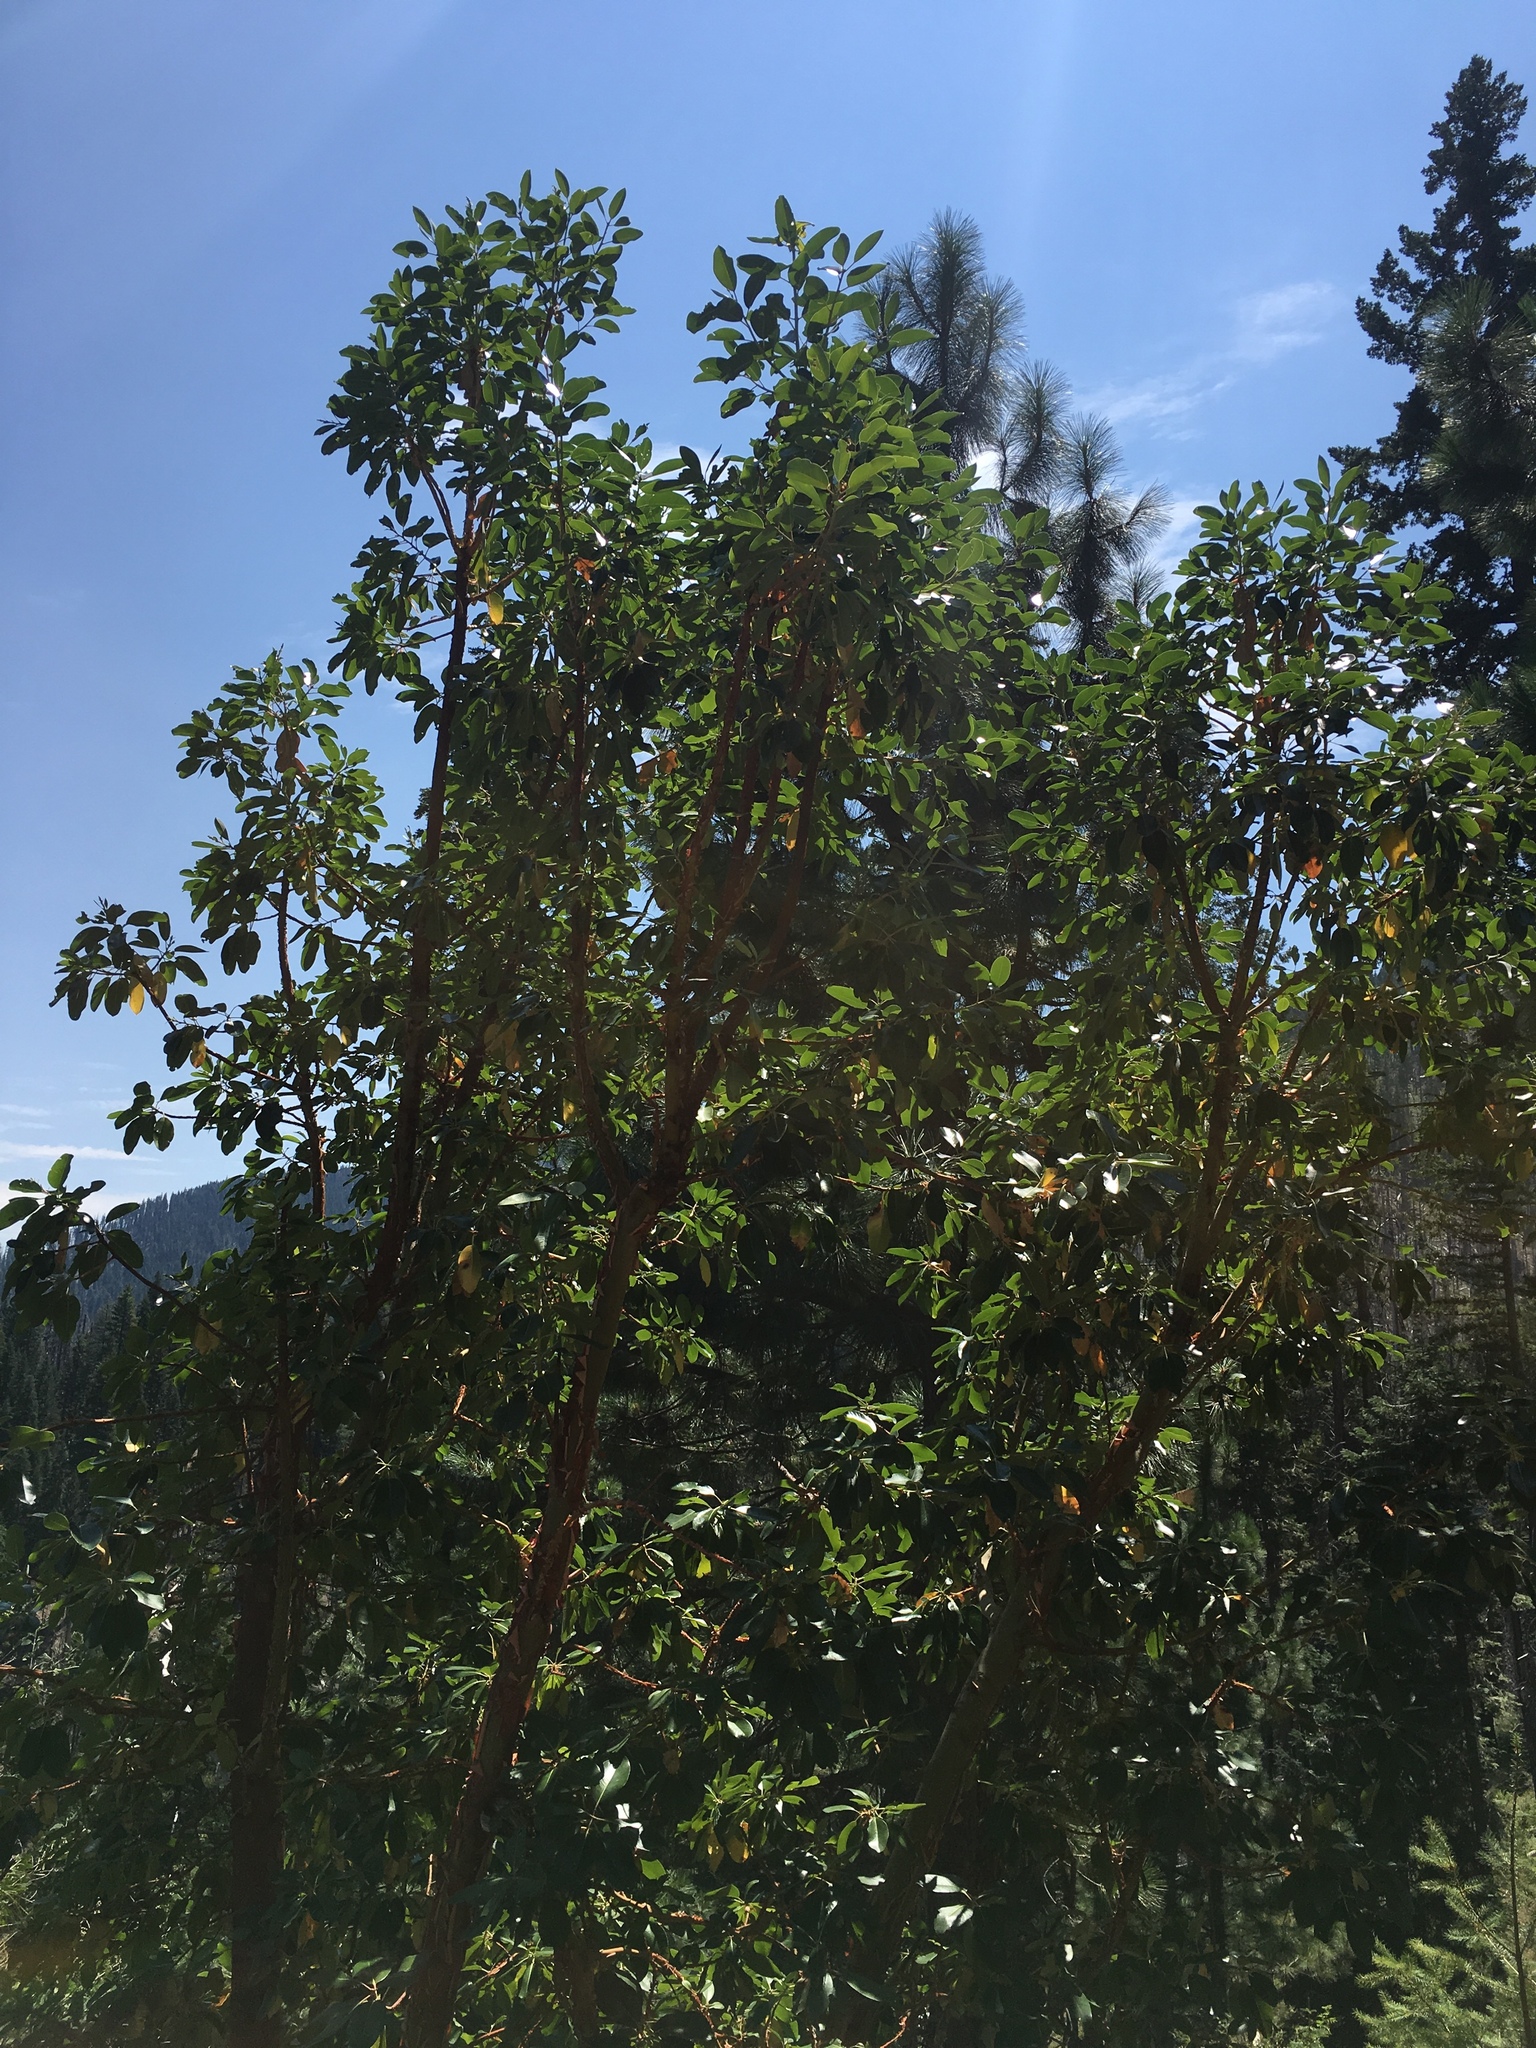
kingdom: Plantae
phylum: Tracheophyta
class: Magnoliopsida
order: Ericales
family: Ericaceae
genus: Arbutus
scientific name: Arbutus menziesii
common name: Pacific madrone
